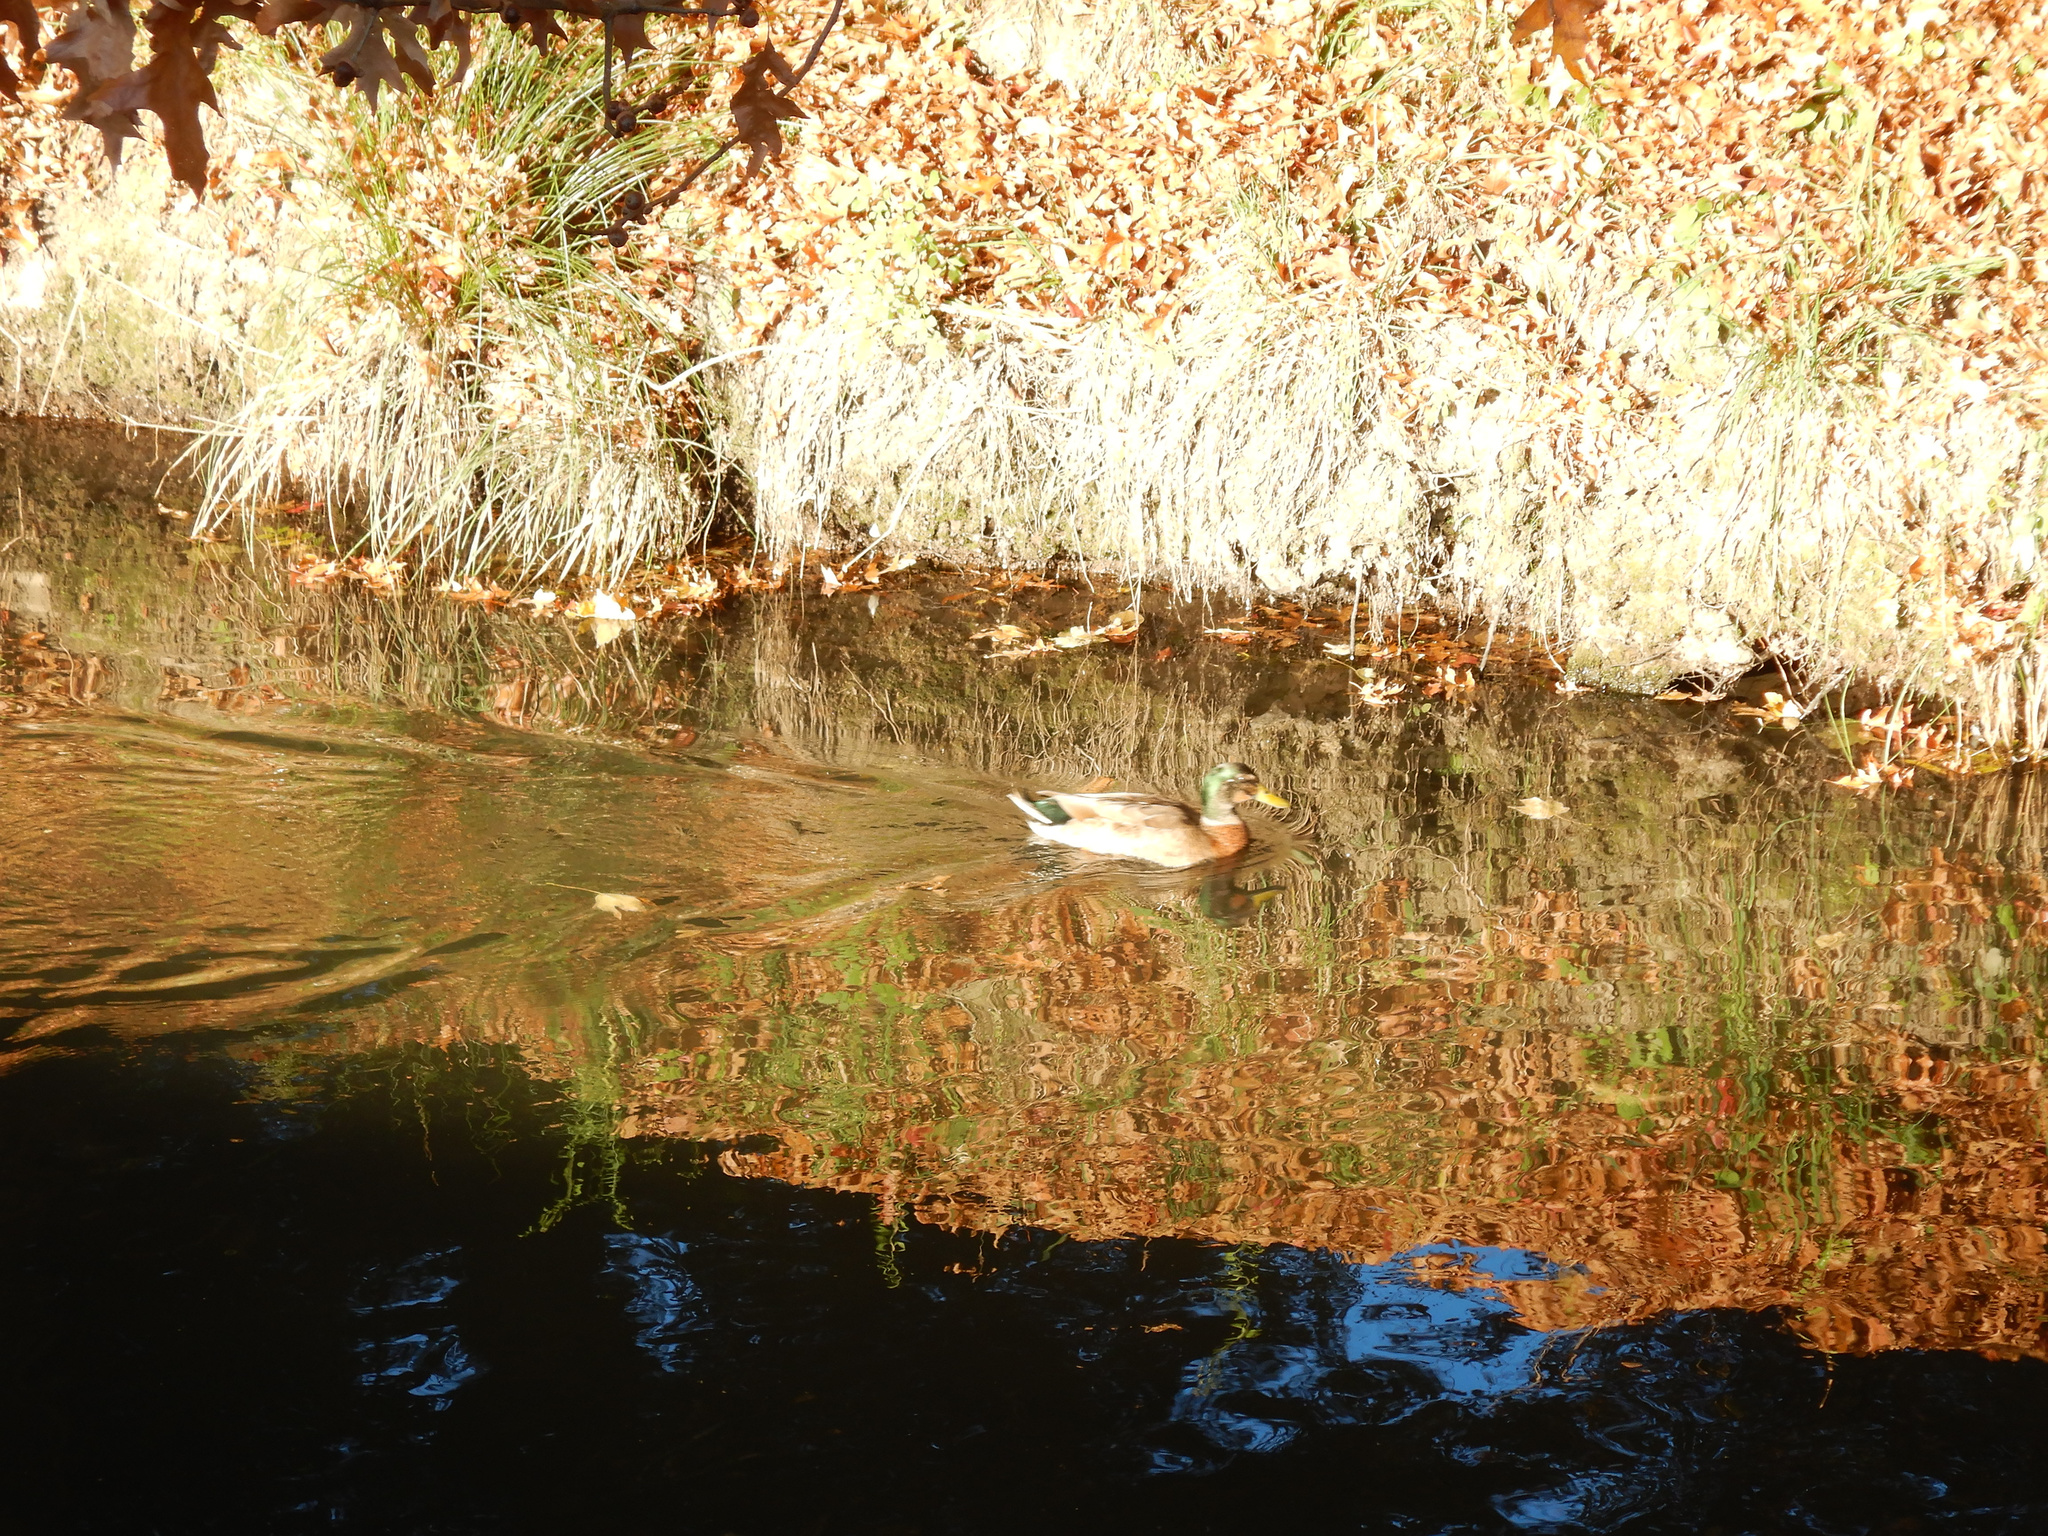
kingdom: Animalia
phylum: Chordata
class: Aves
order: Anseriformes
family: Anatidae
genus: Anas
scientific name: Anas
